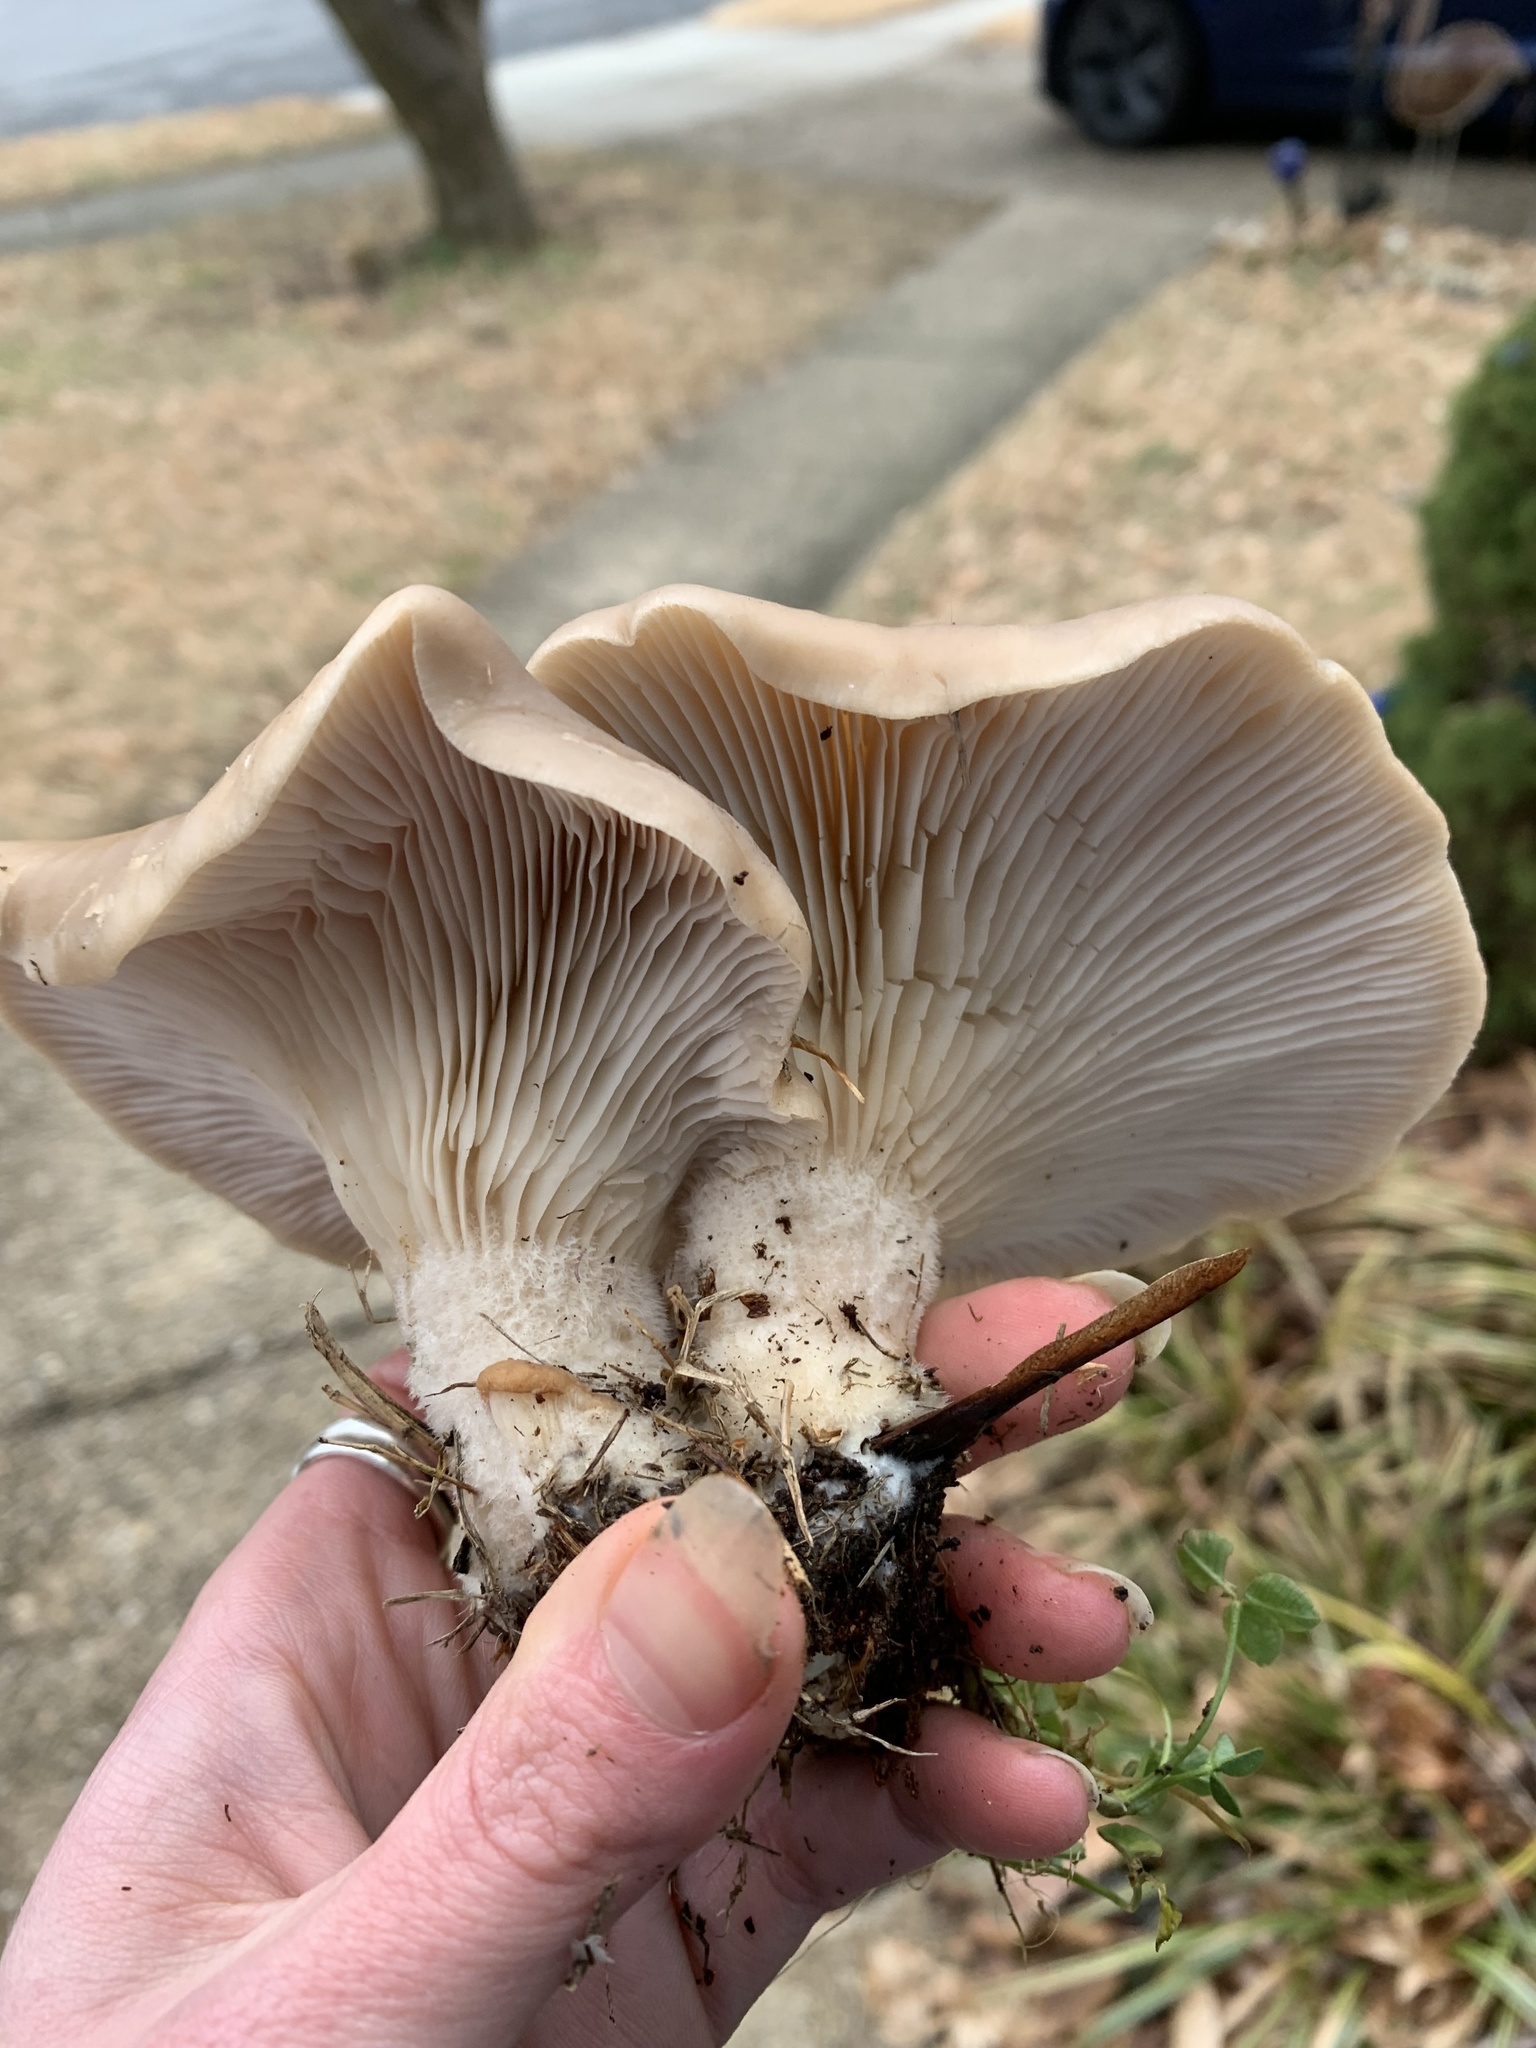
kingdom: Fungi
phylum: Basidiomycota
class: Agaricomycetes
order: Agaricales
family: Pleurotaceae
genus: Pleurotus
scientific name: Pleurotus ostreatus
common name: Oyster mushroom
